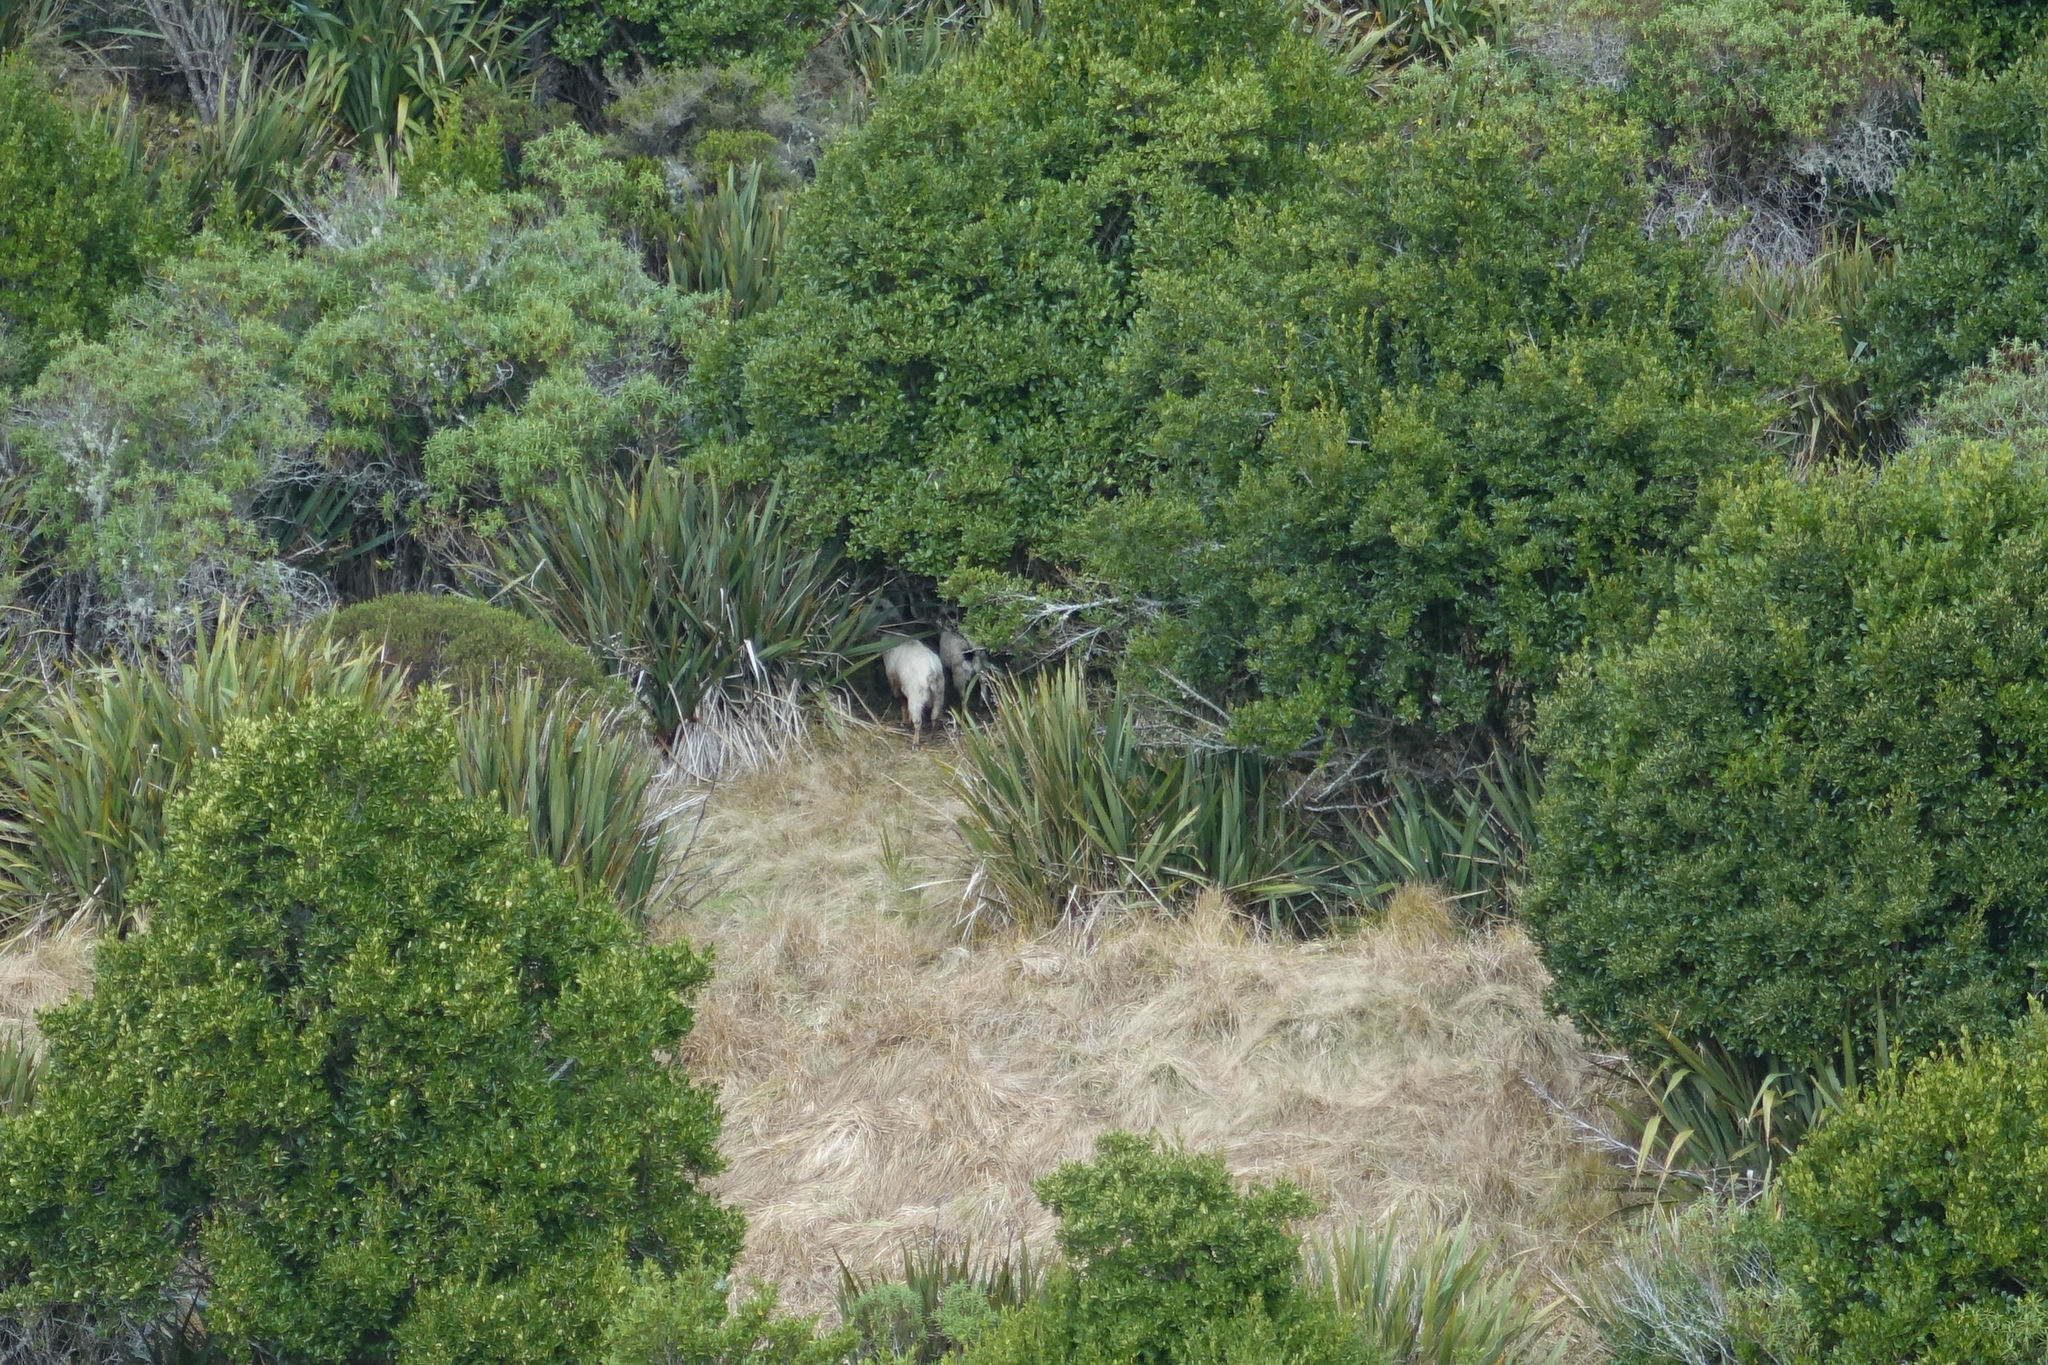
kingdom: Animalia
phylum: Chordata
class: Mammalia
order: Artiodactyla
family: Bovidae
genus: Capra
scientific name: Capra hircus
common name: Domestic goat
